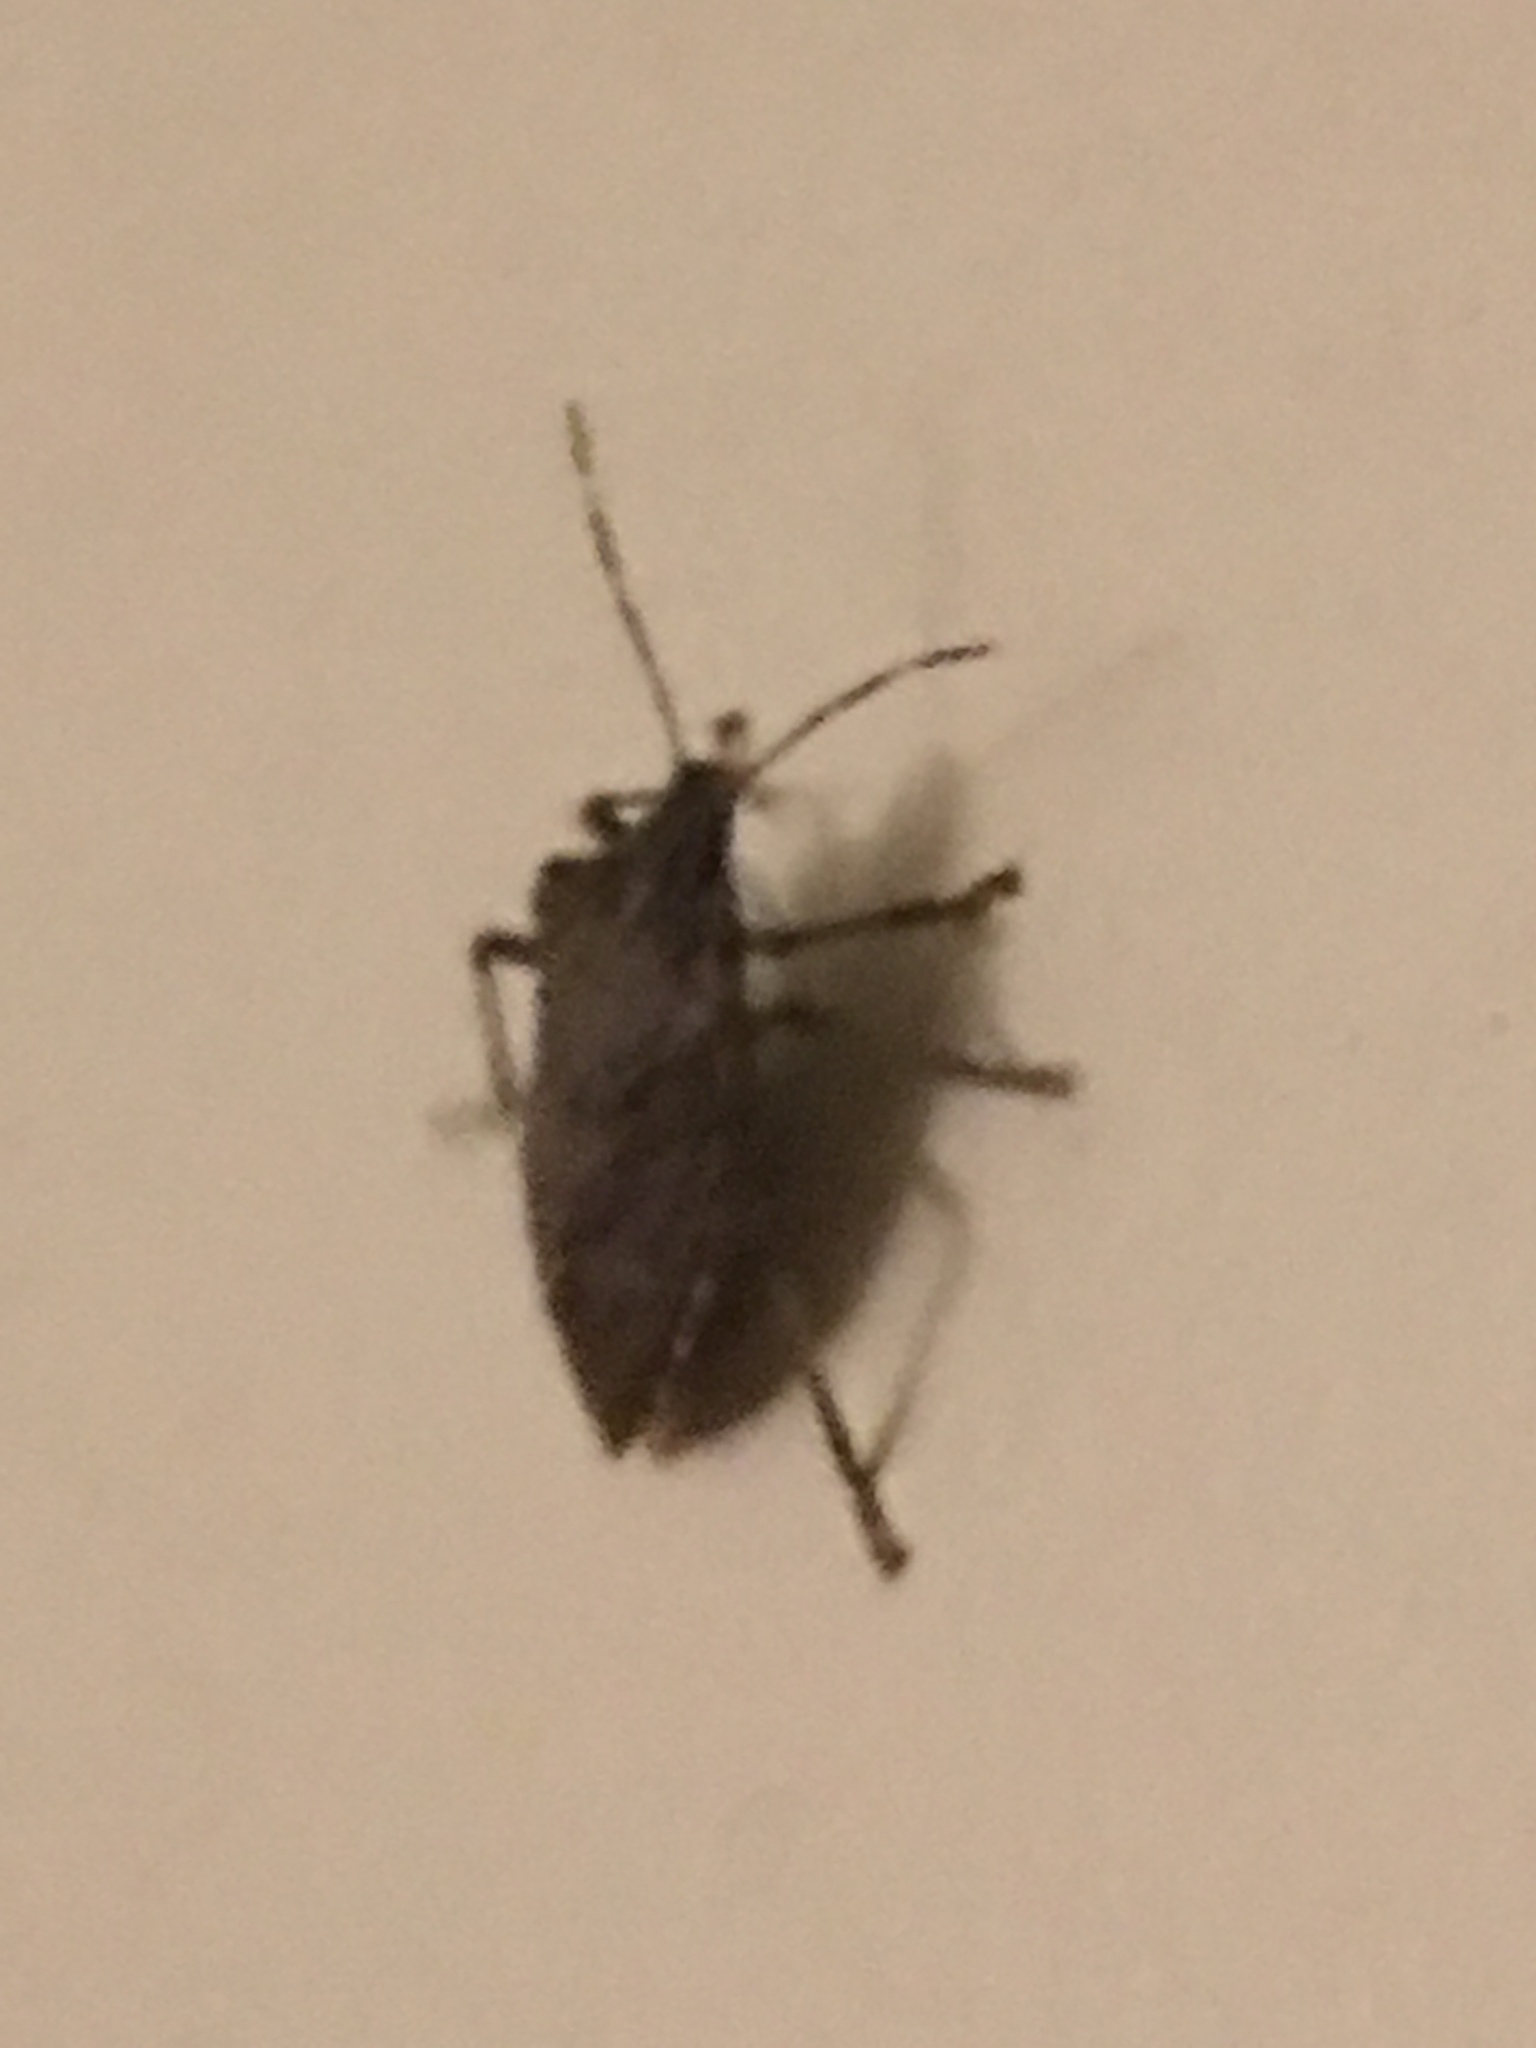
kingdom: Animalia
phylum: Arthropoda
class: Insecta
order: Hemiptera
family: Pentatomidae
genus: Halyomorpha
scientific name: Halyomorpha halys
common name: Brown marmorated stink bug
